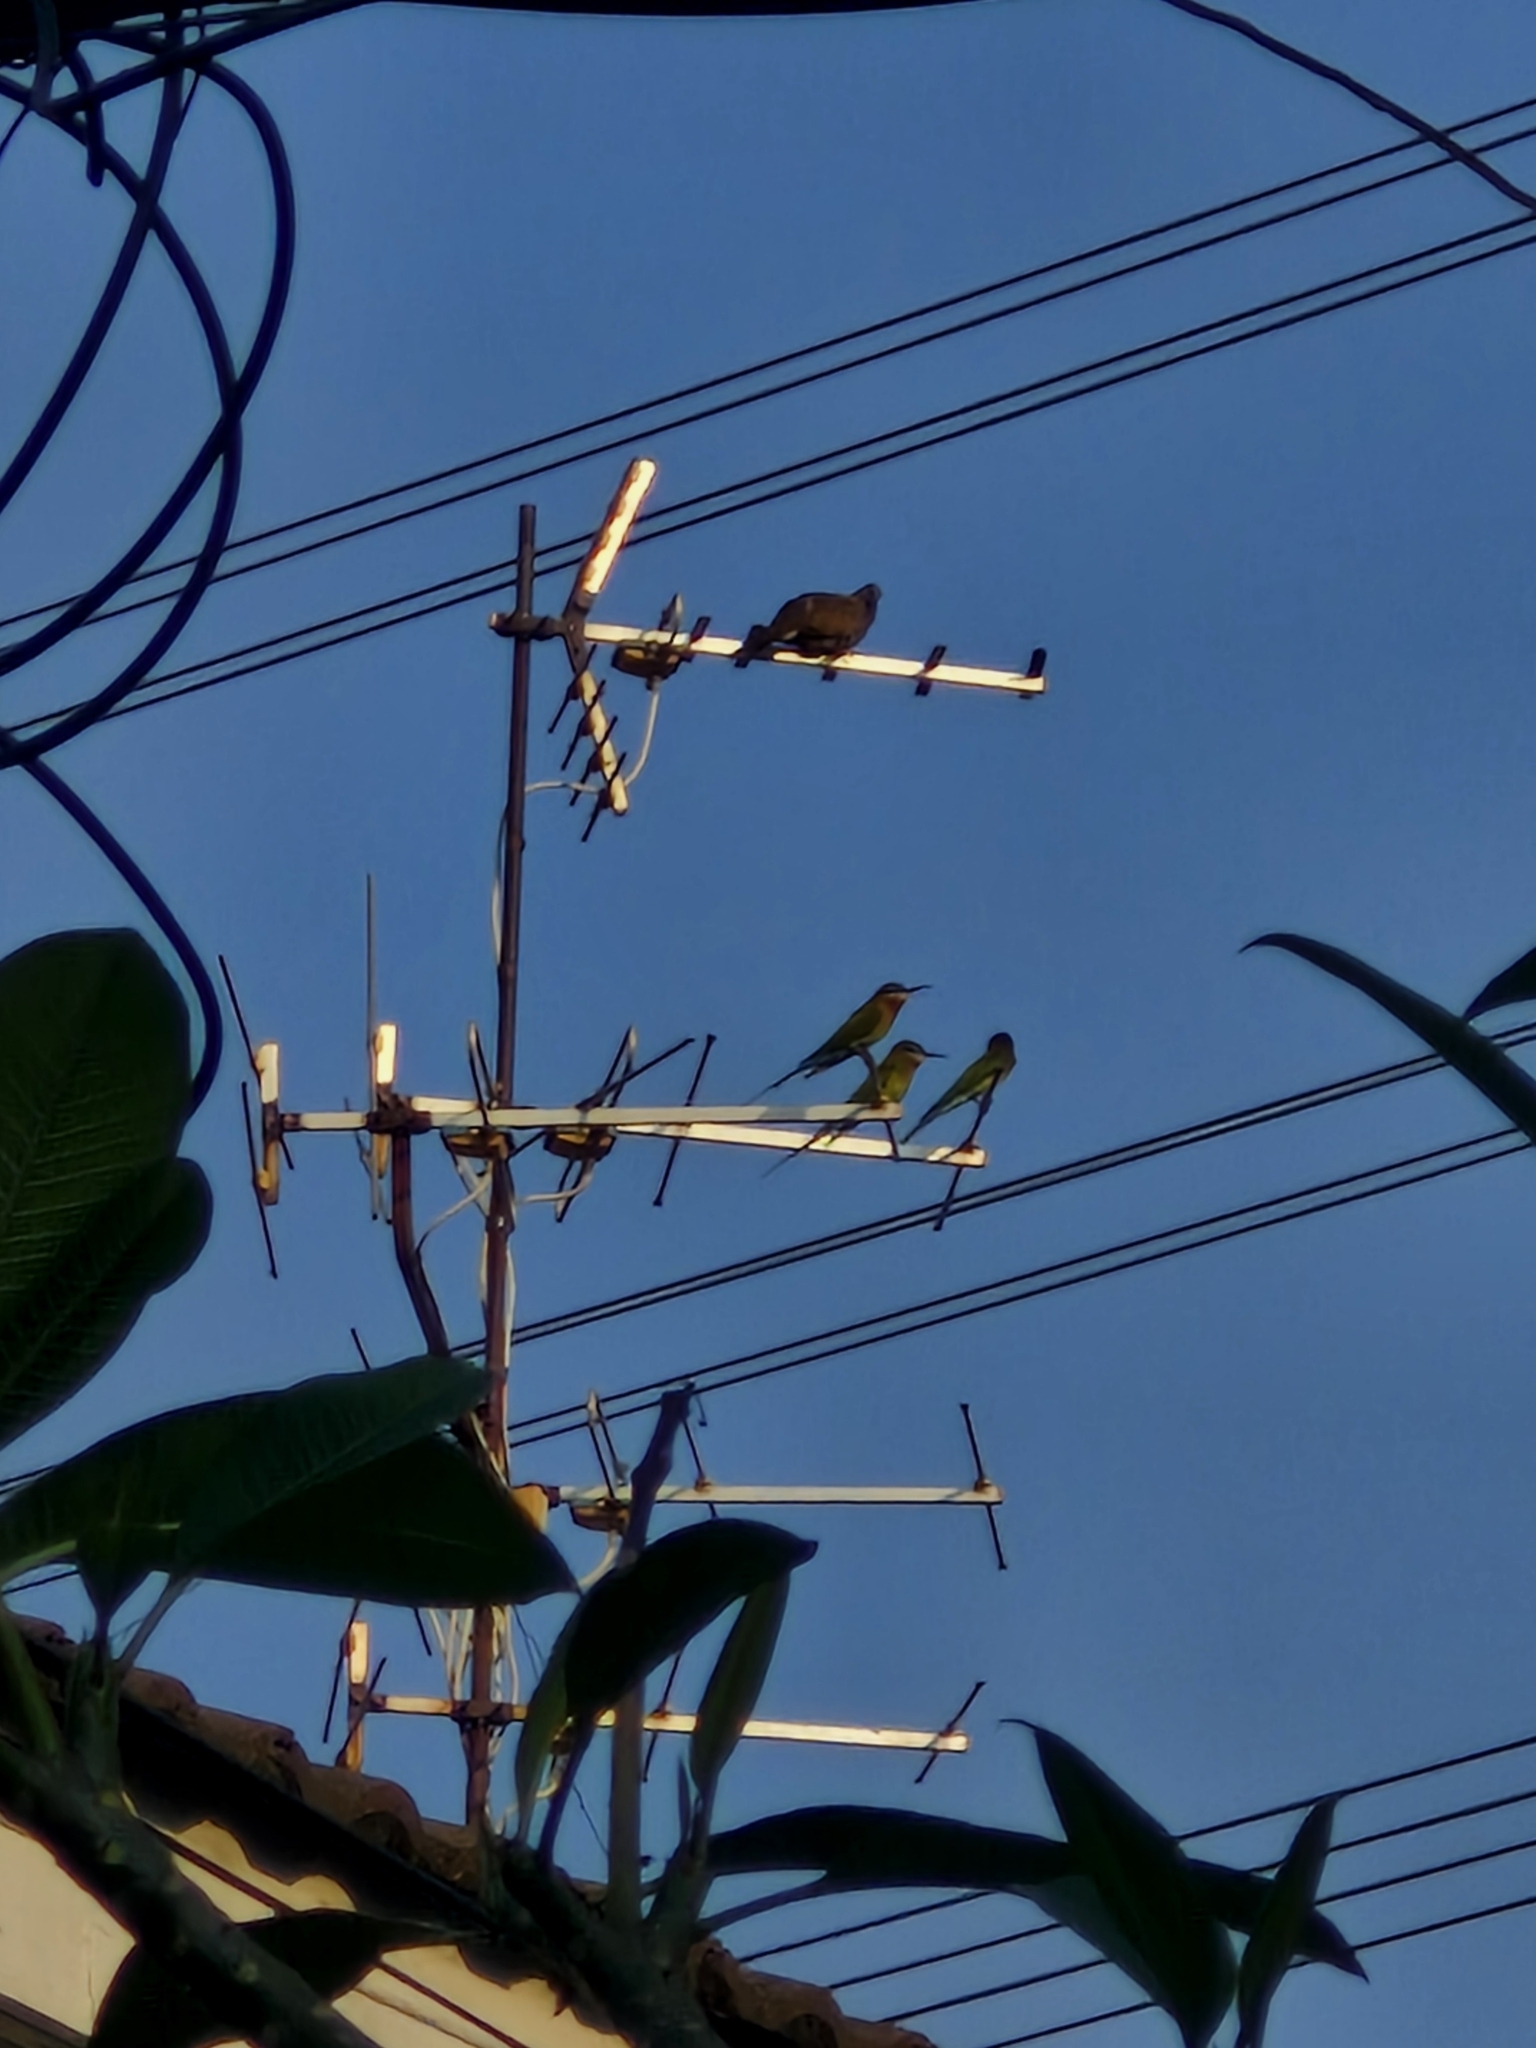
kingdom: Animalia
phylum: Chordata
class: Aves
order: Coraciiformes
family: Meropidae
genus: Merops
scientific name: Merops philippinus
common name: Blue-tailed bee-eater
